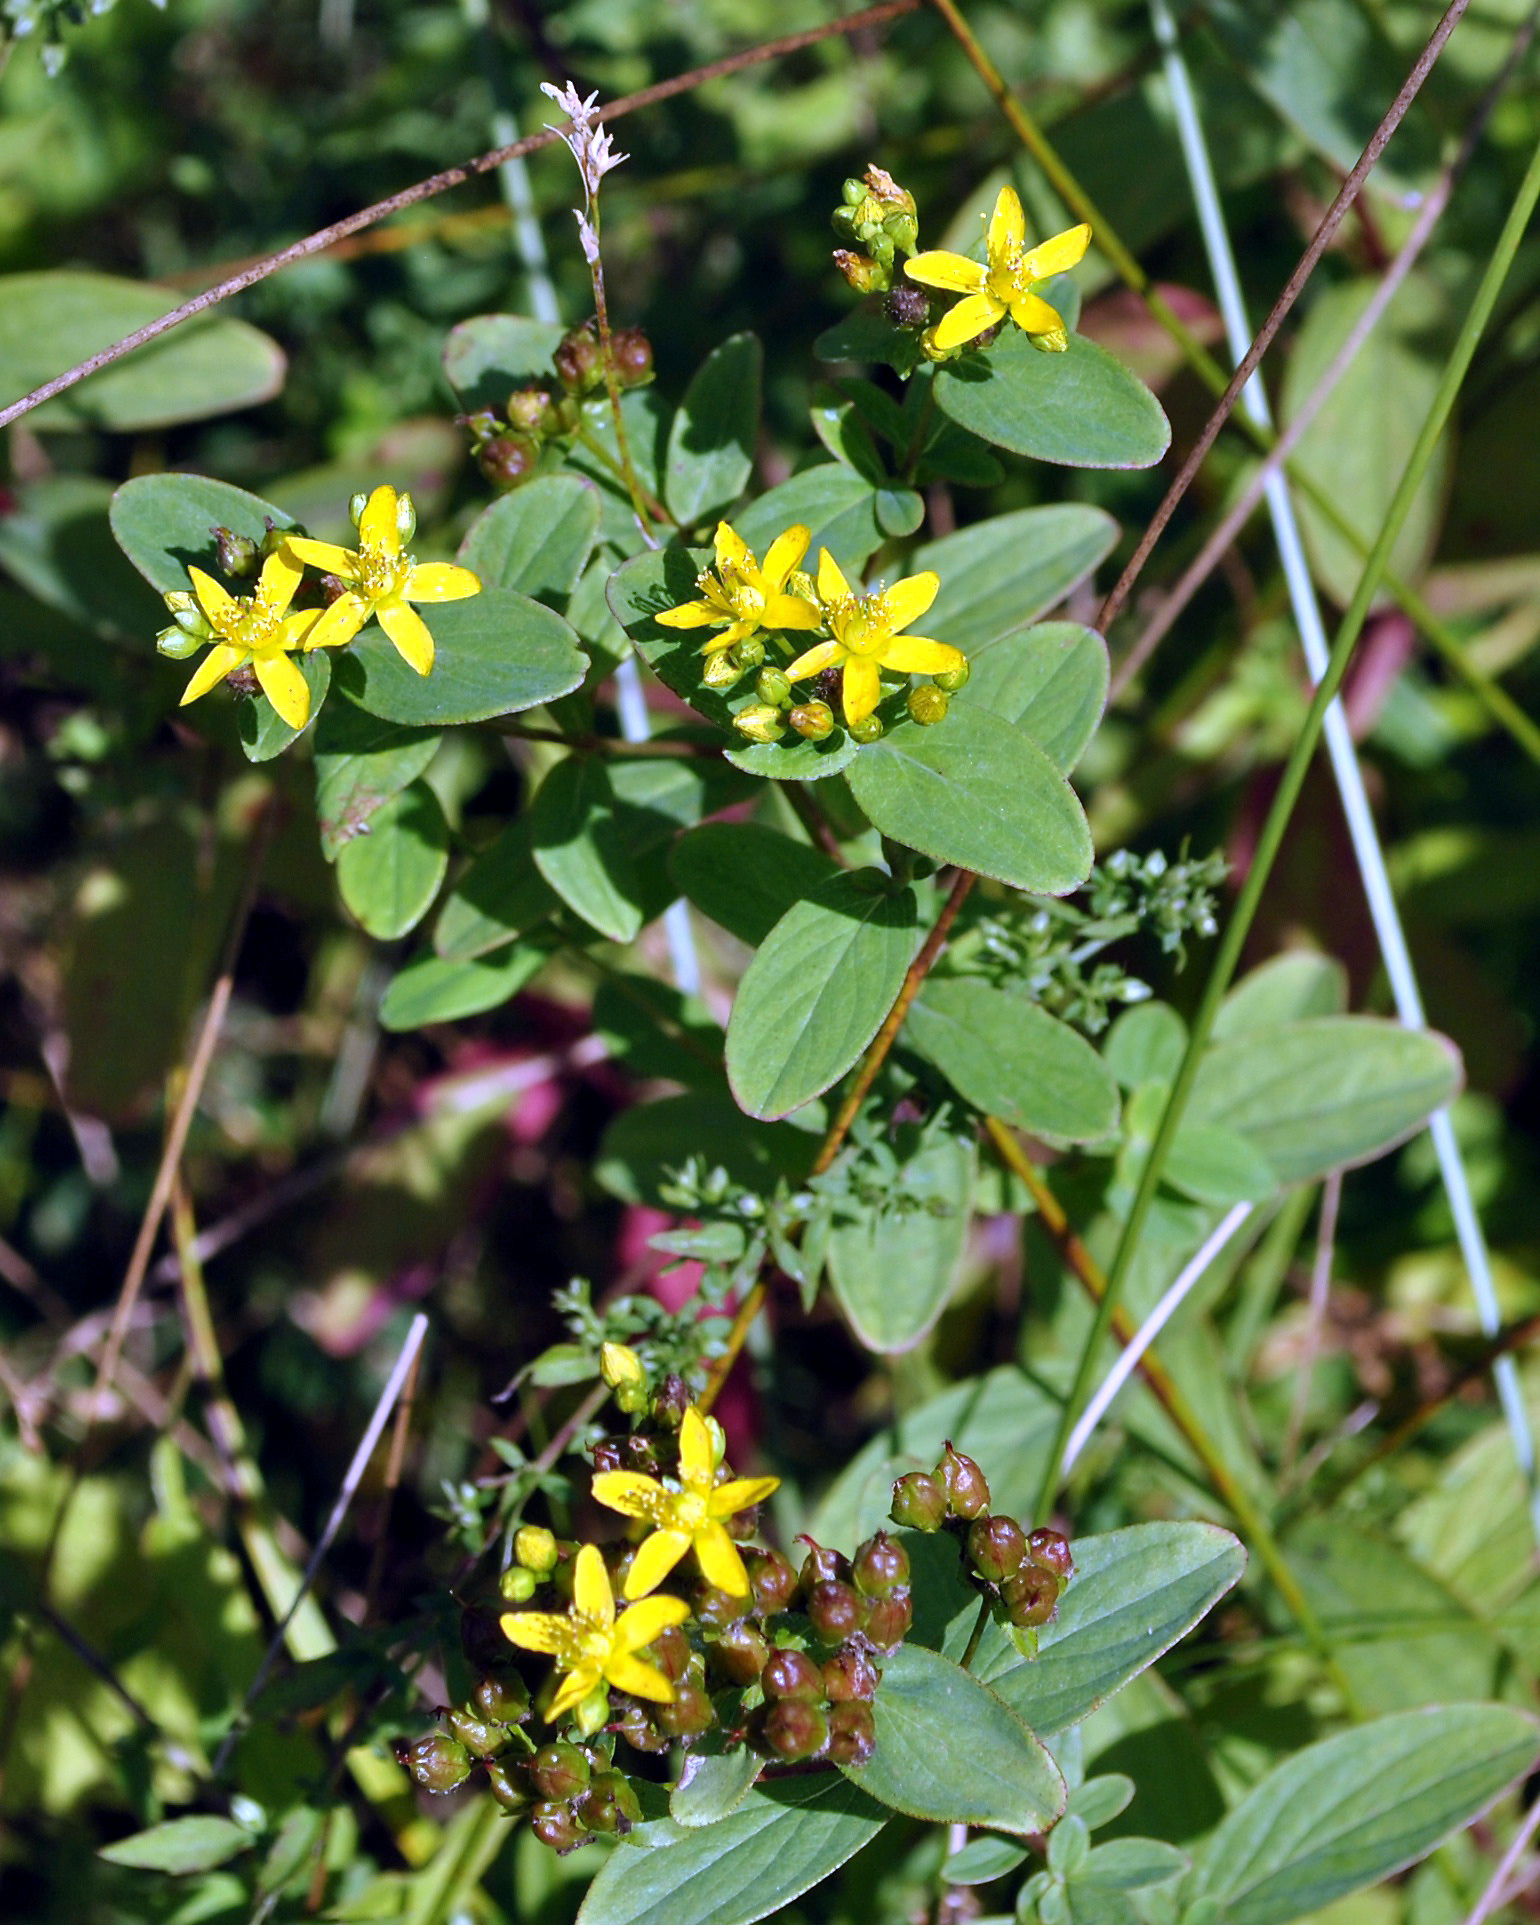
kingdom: Plantae
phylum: Tracheophyta
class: Magnoliopsida
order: Malpighiales
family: Hypericaceae
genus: Hypericum
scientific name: Hypericum punctatum
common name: Spotted st. john's-wort
